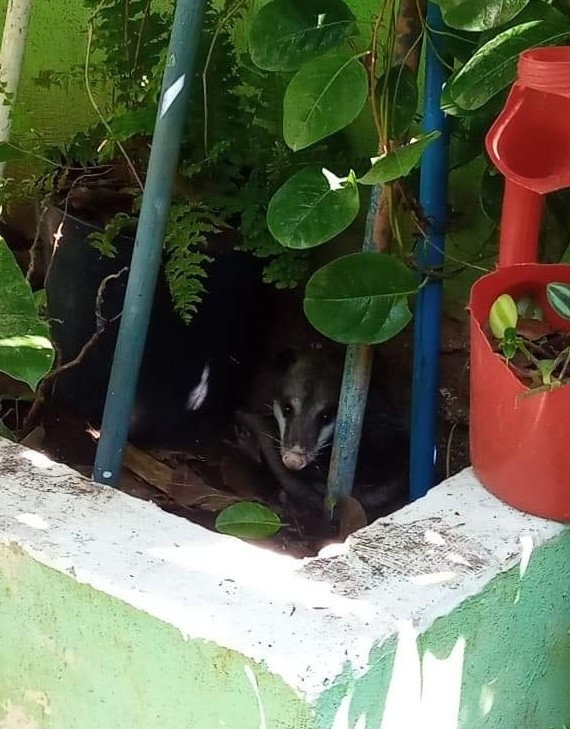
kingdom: Animalia
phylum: Chordata
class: Mammalia
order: Didelphimorphia
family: Didelphidae
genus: Didelphis
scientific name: Didelphis virginiana
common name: Virginia opossum
